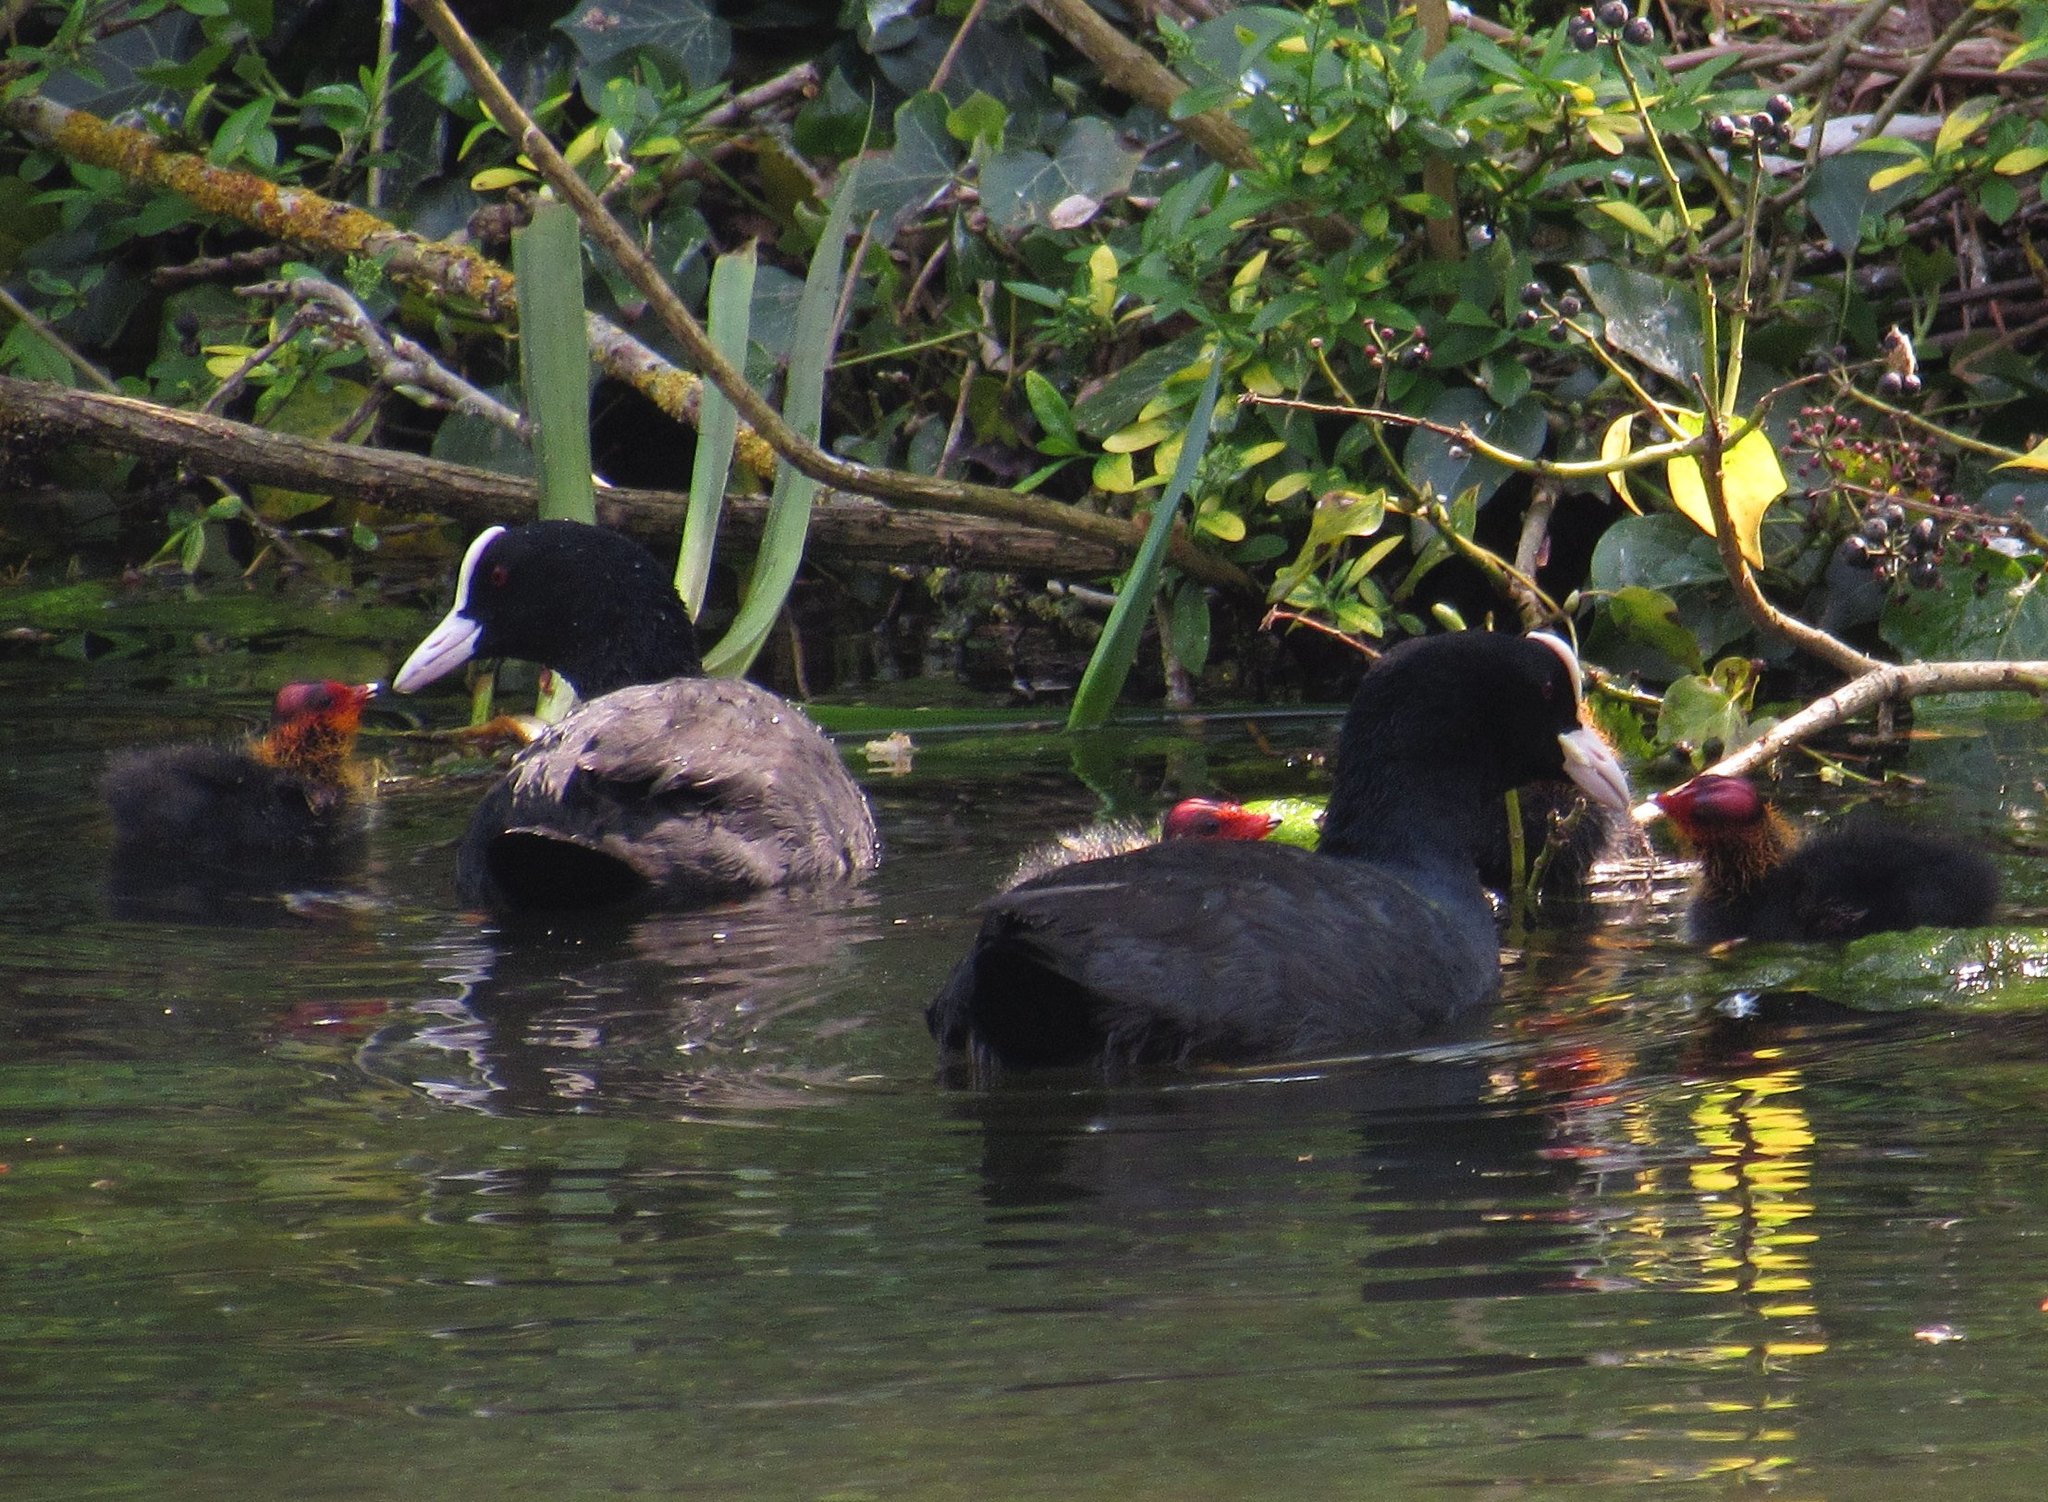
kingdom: Animalia
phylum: Chordata
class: Aves
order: Gruiformes
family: Rallidae
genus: Fulica
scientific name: Fulica atra
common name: Eurasian coot
